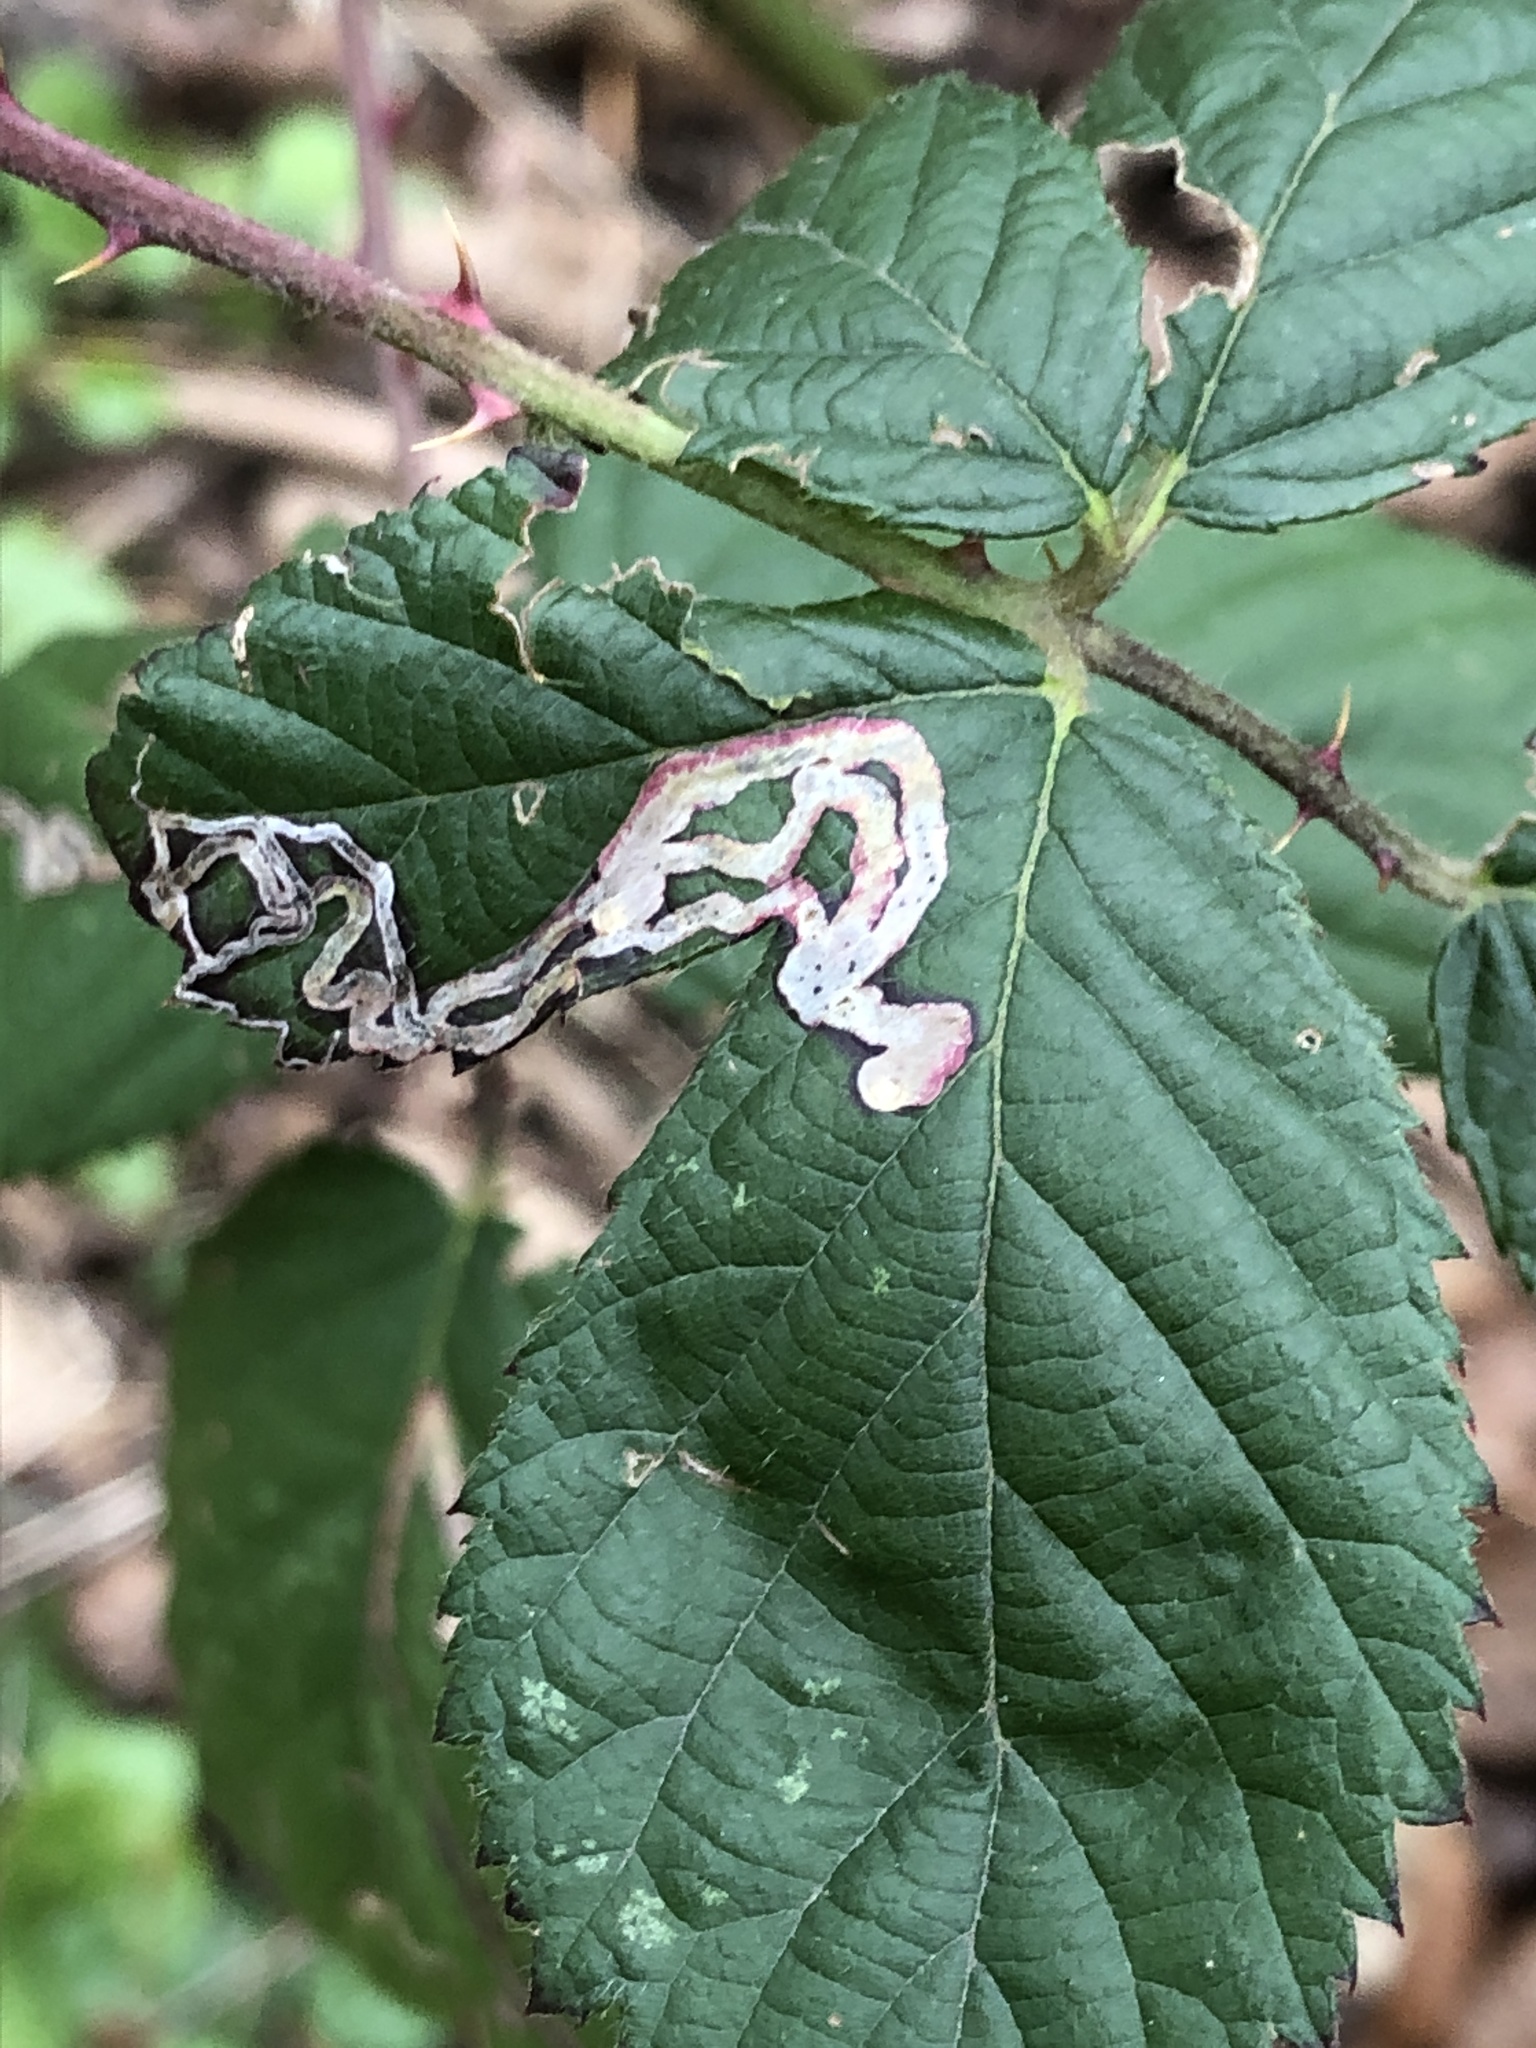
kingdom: Animalia
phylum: Arthropoda
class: Insecta
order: Lepidoptera
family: Nepticulidae
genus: Stigmella
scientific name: Stigmella aurella
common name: Golden pigmy
